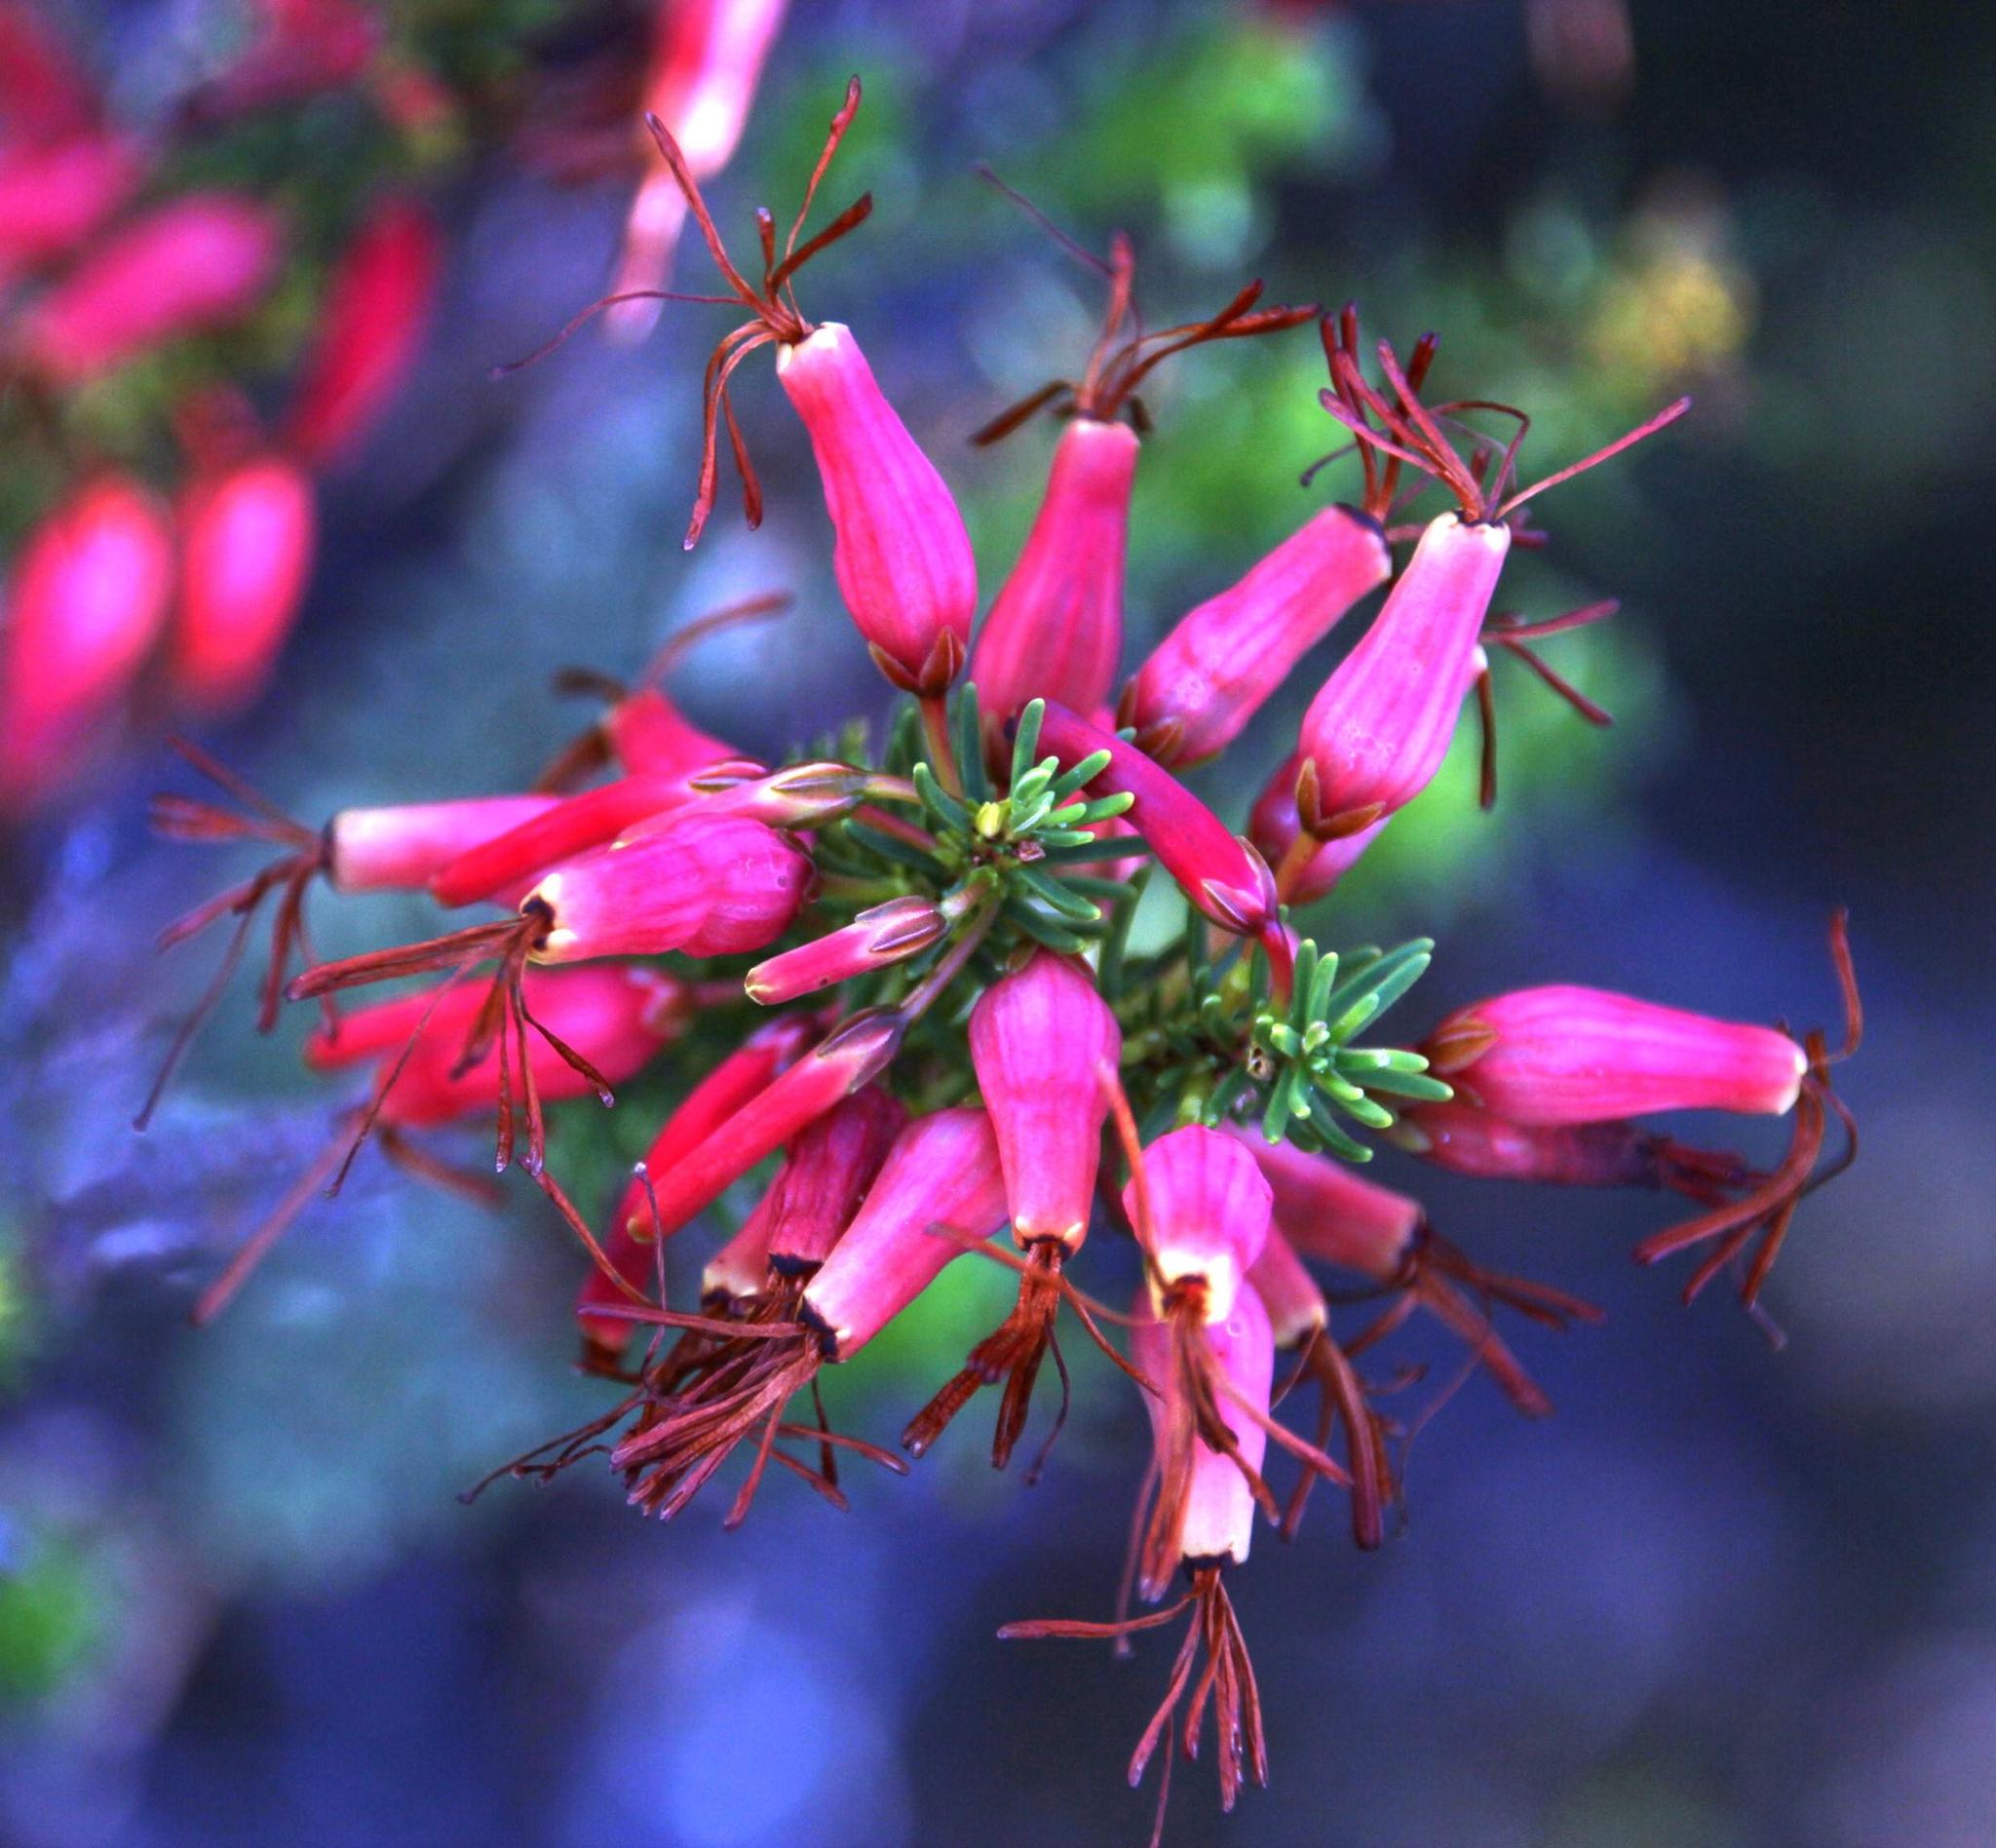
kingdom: Plantae
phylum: Tracheophyta
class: Magnoliopsida
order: Ericales
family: Ericaceae
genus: Erica
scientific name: Erica plukenetii
